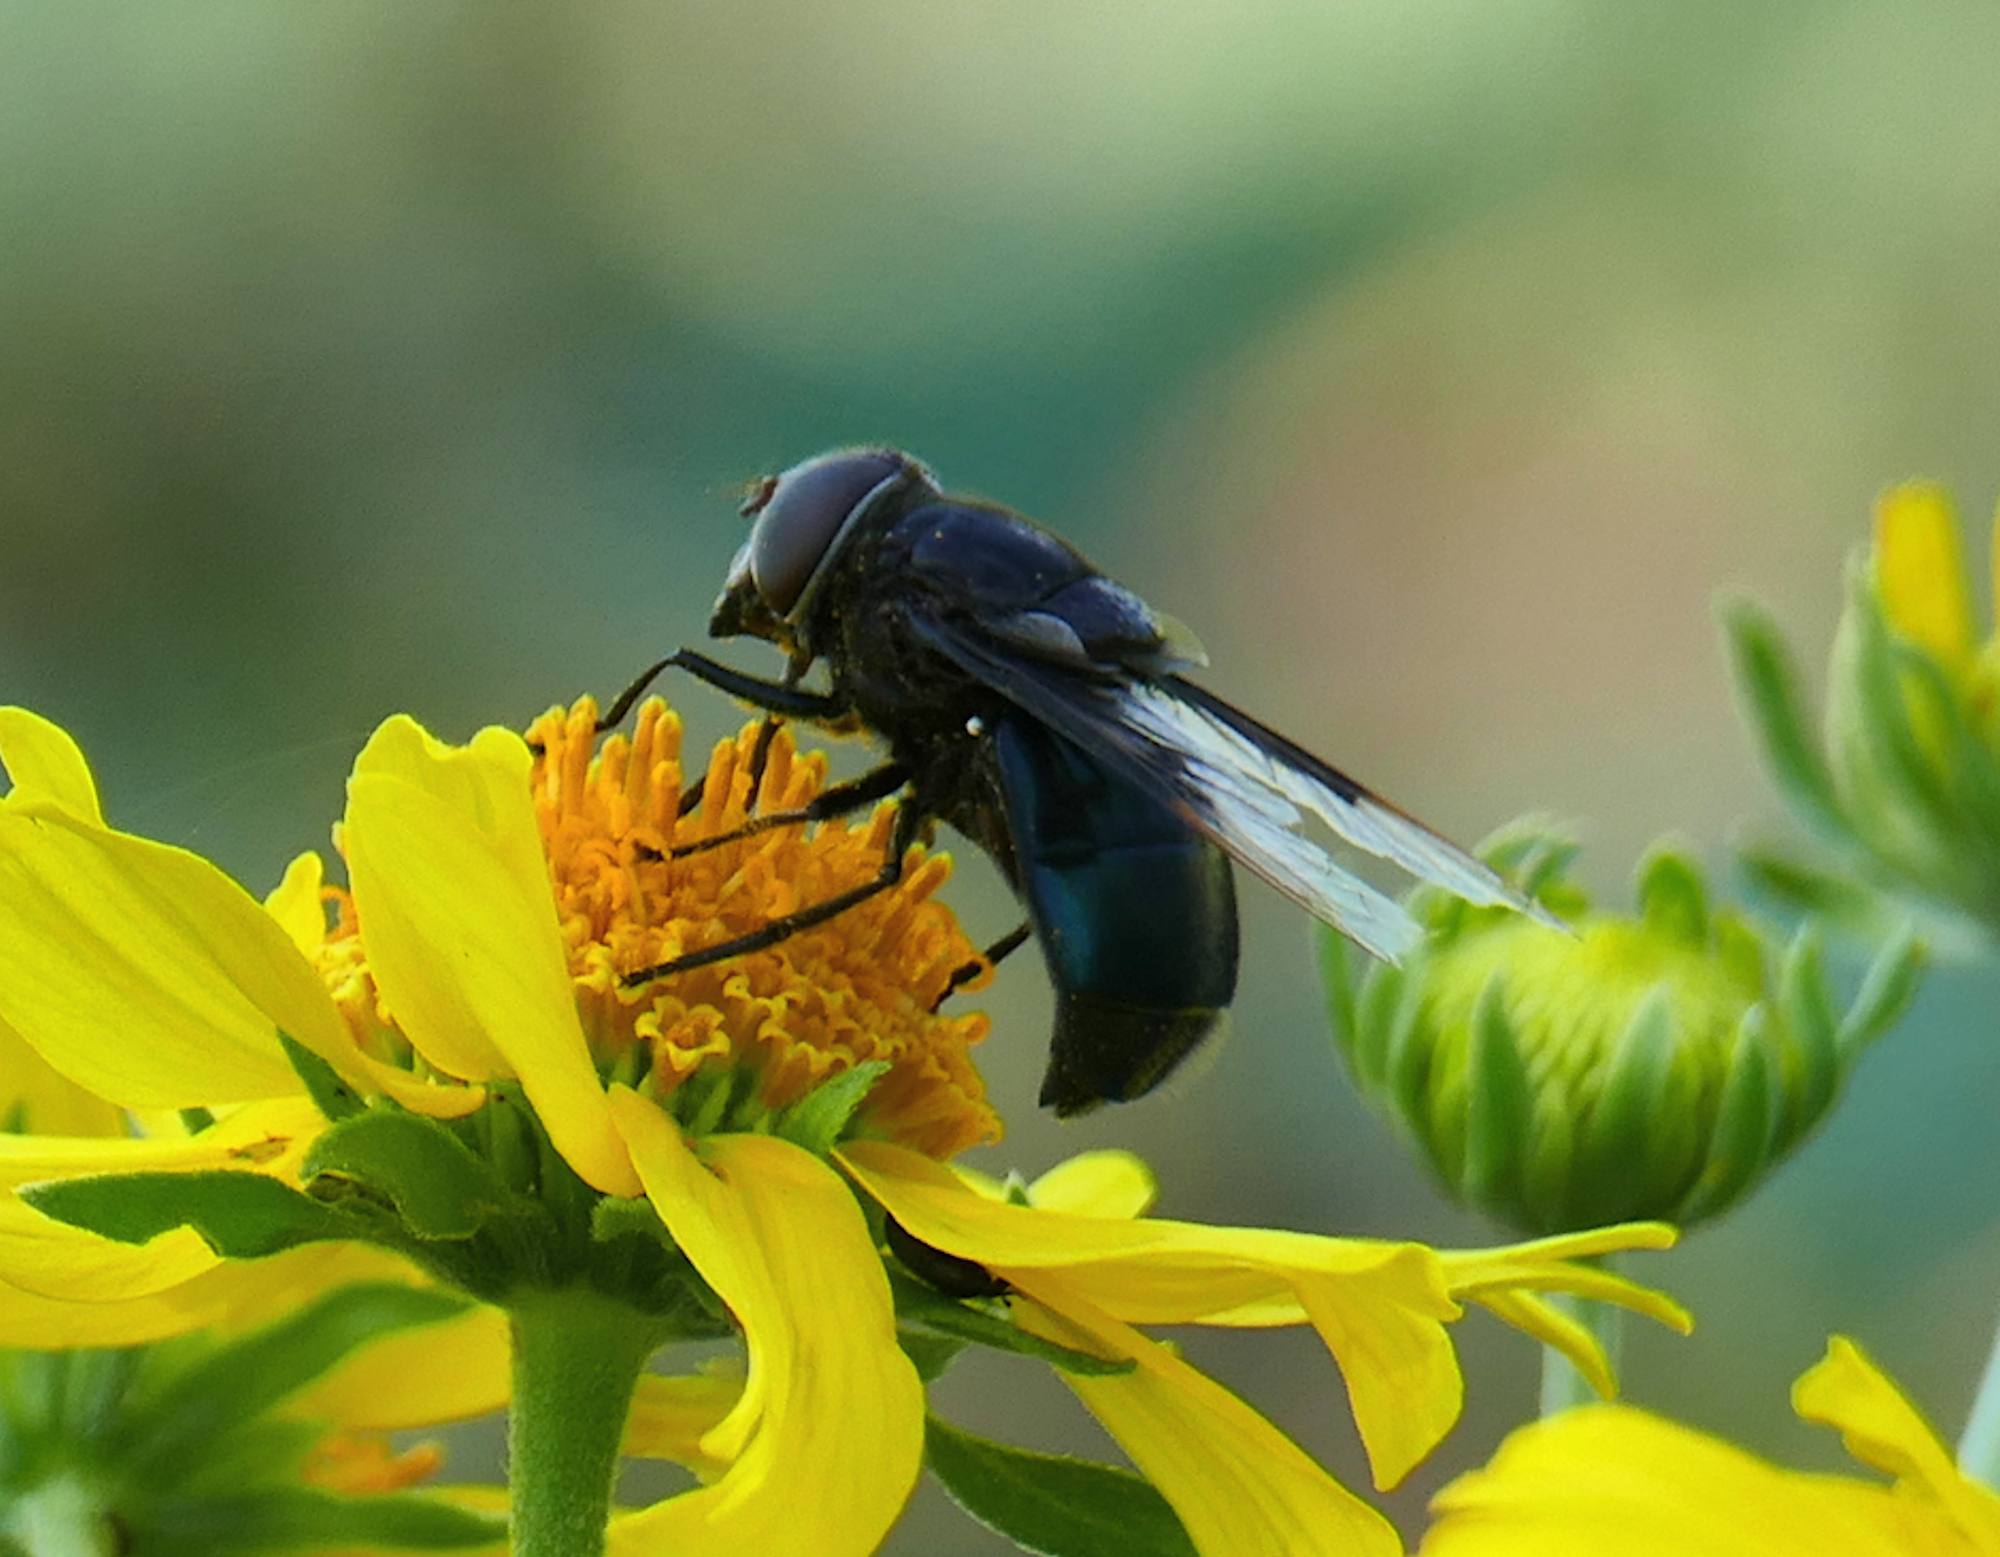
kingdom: Animalia
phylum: Arthropoda
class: Insecta
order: Diptera
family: Syrphidae
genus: Copestylum
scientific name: Copestylum
